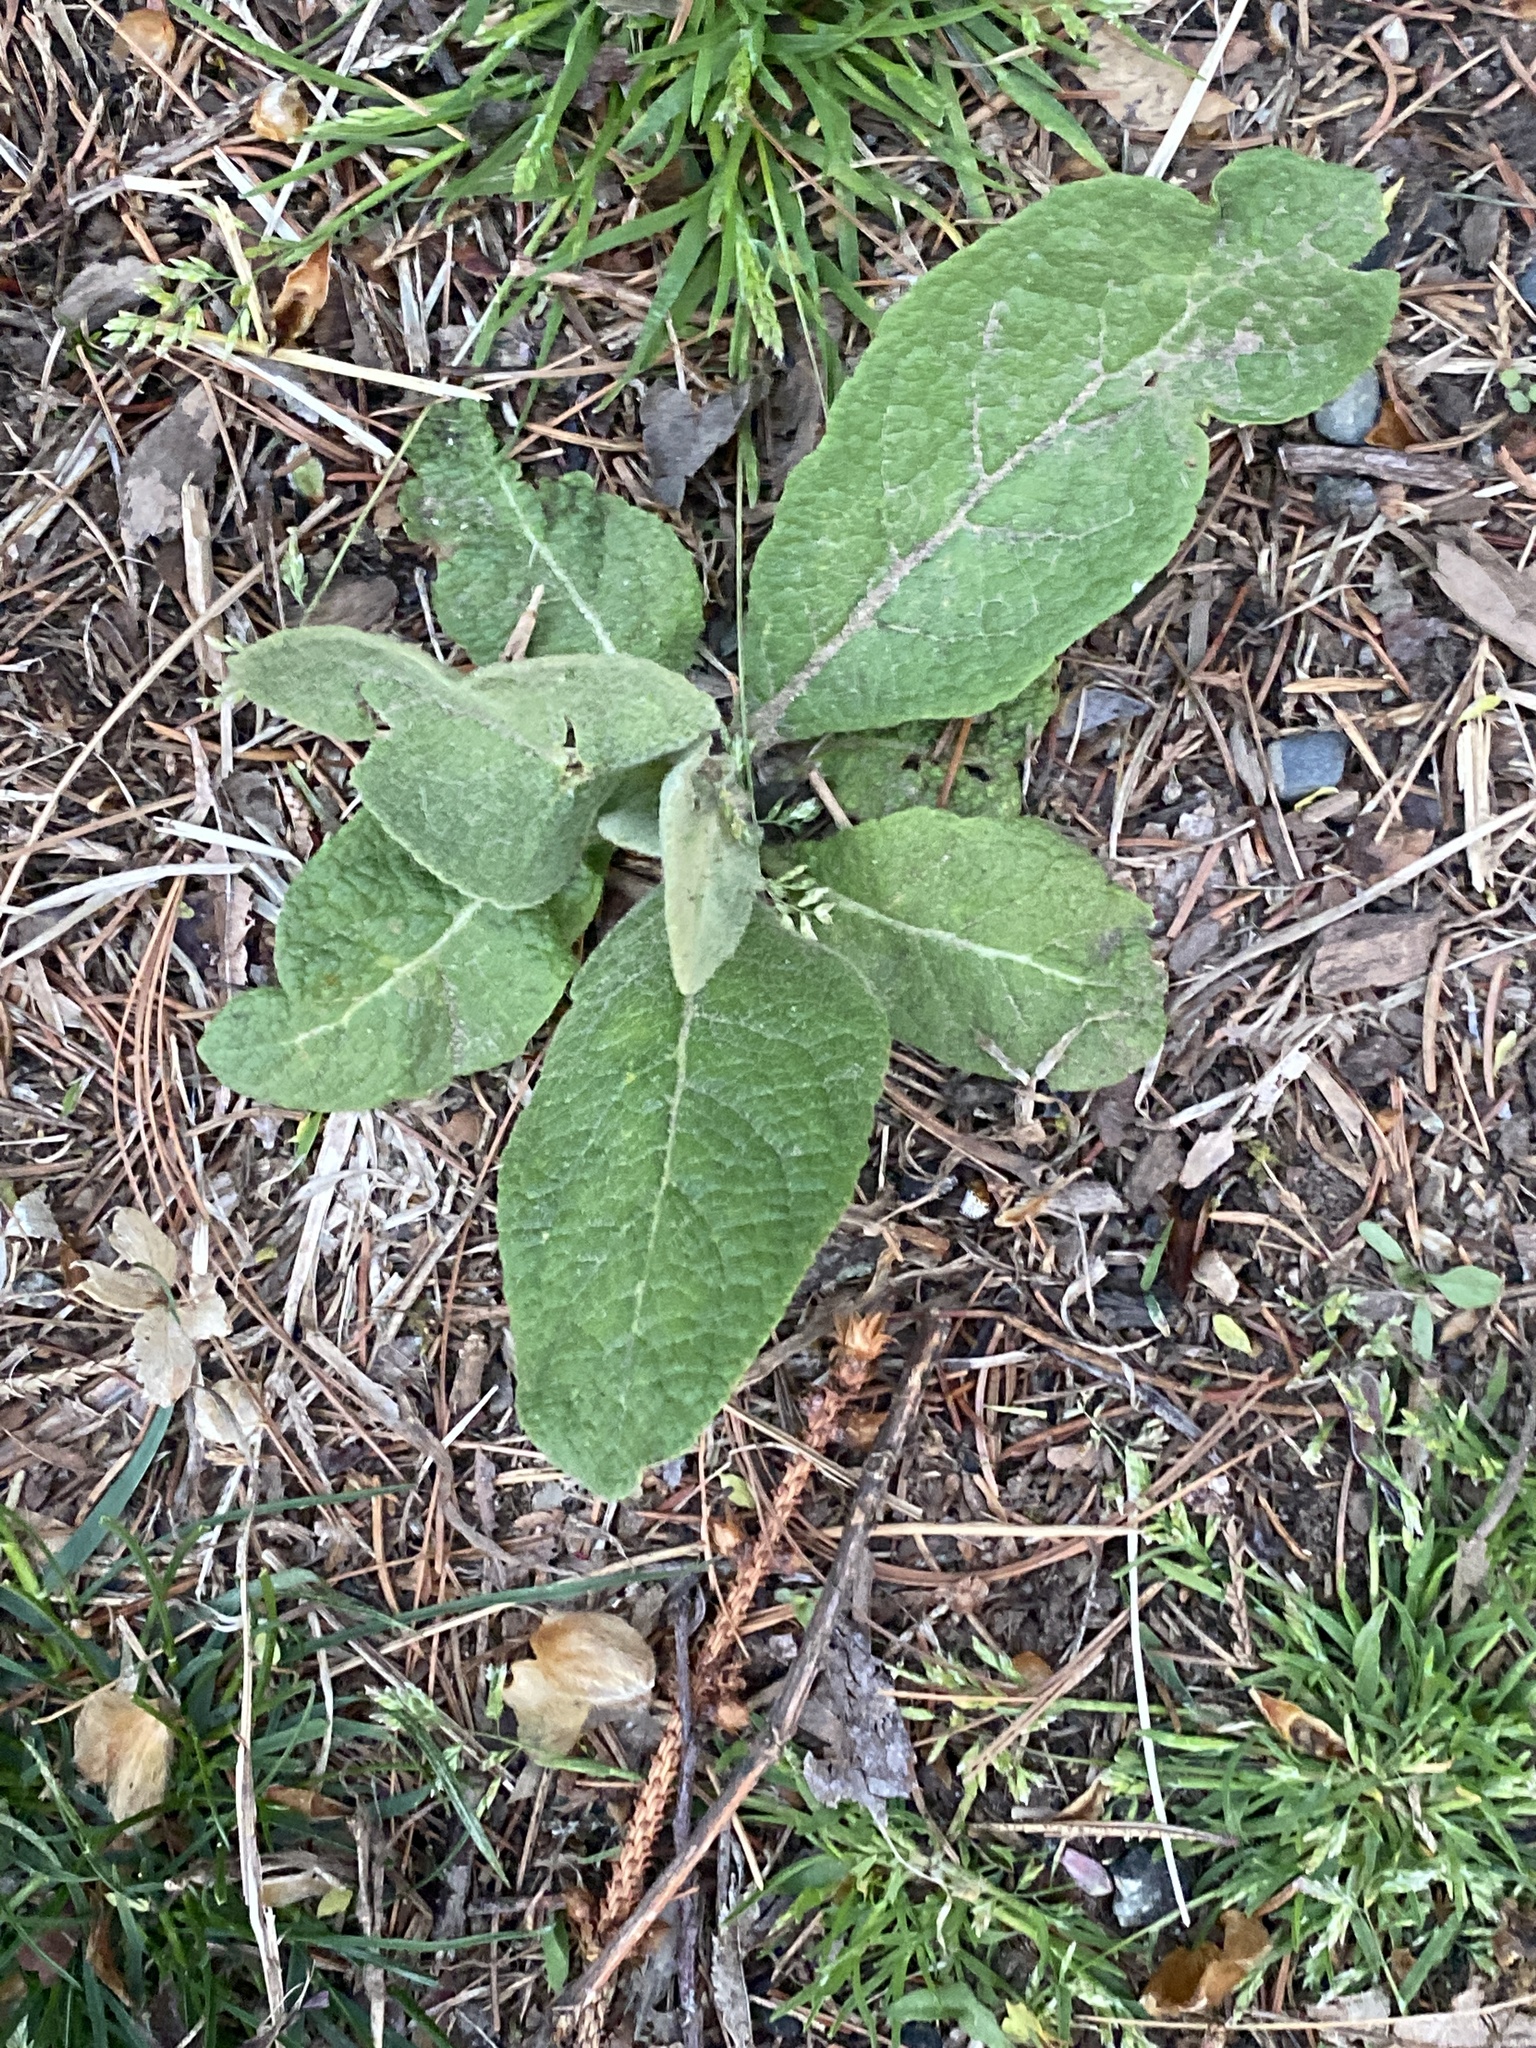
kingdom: Plantae
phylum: Tracheophyta
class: Magnoliopsida
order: Lamiales
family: Scrophulariaceae
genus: Verbascum
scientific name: Verbascum thapsus
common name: Common mullein
